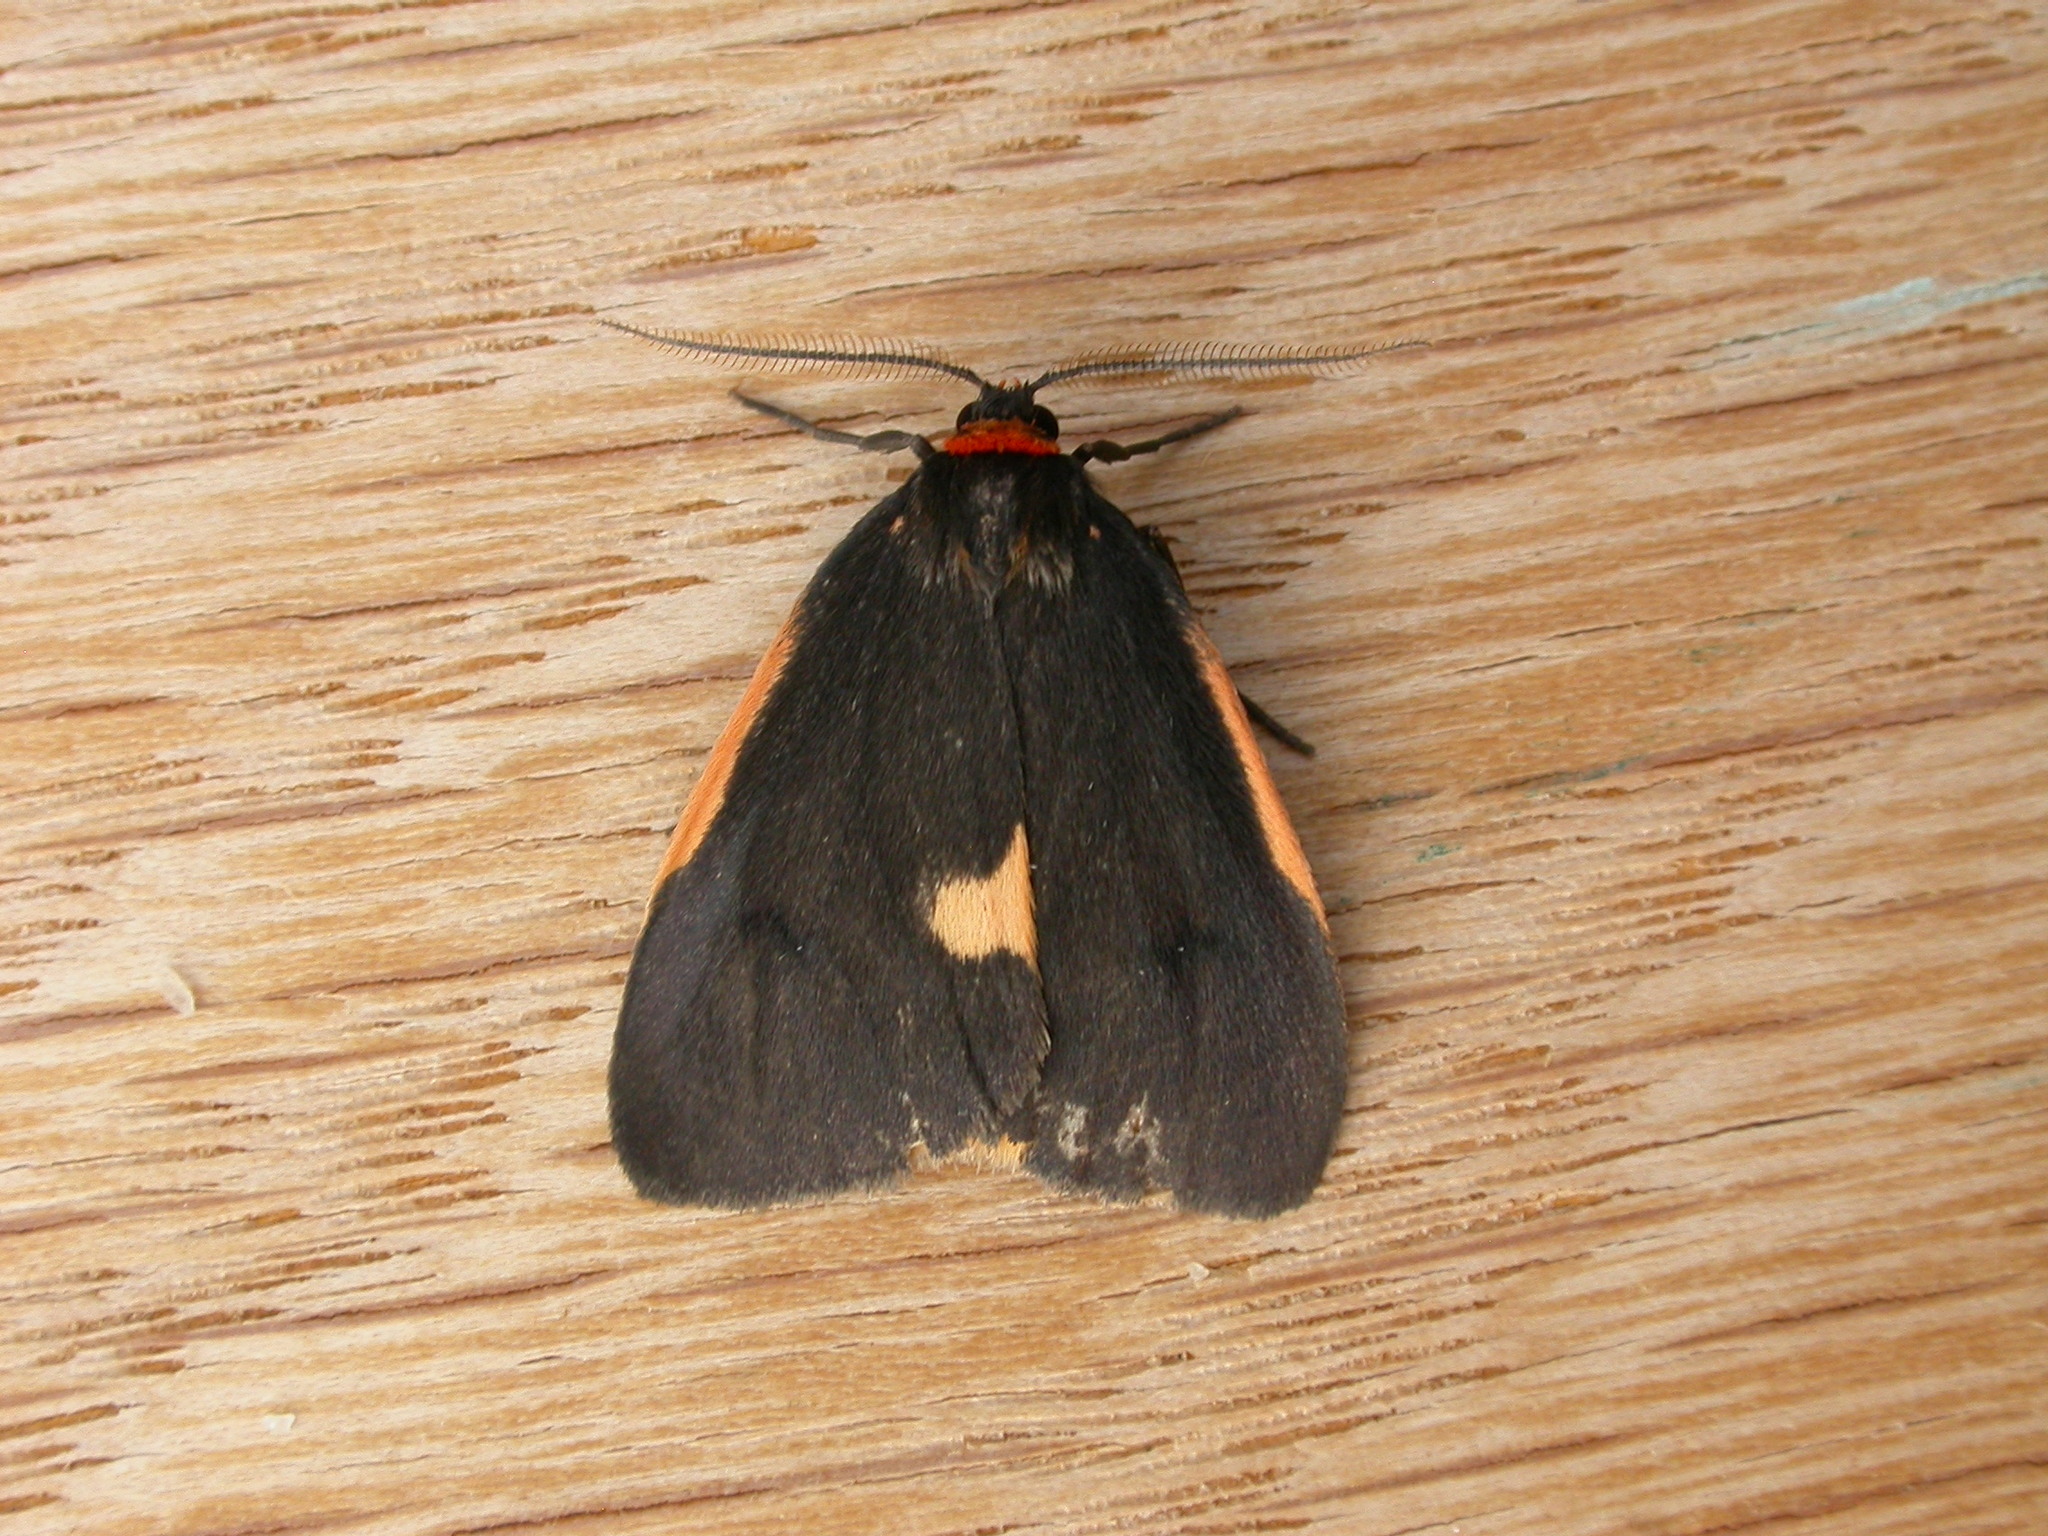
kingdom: Animalia
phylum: Arthropoda
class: Insecta
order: Lepidoptera
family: Erebidae
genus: Castulo
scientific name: Castulo doubledayi
